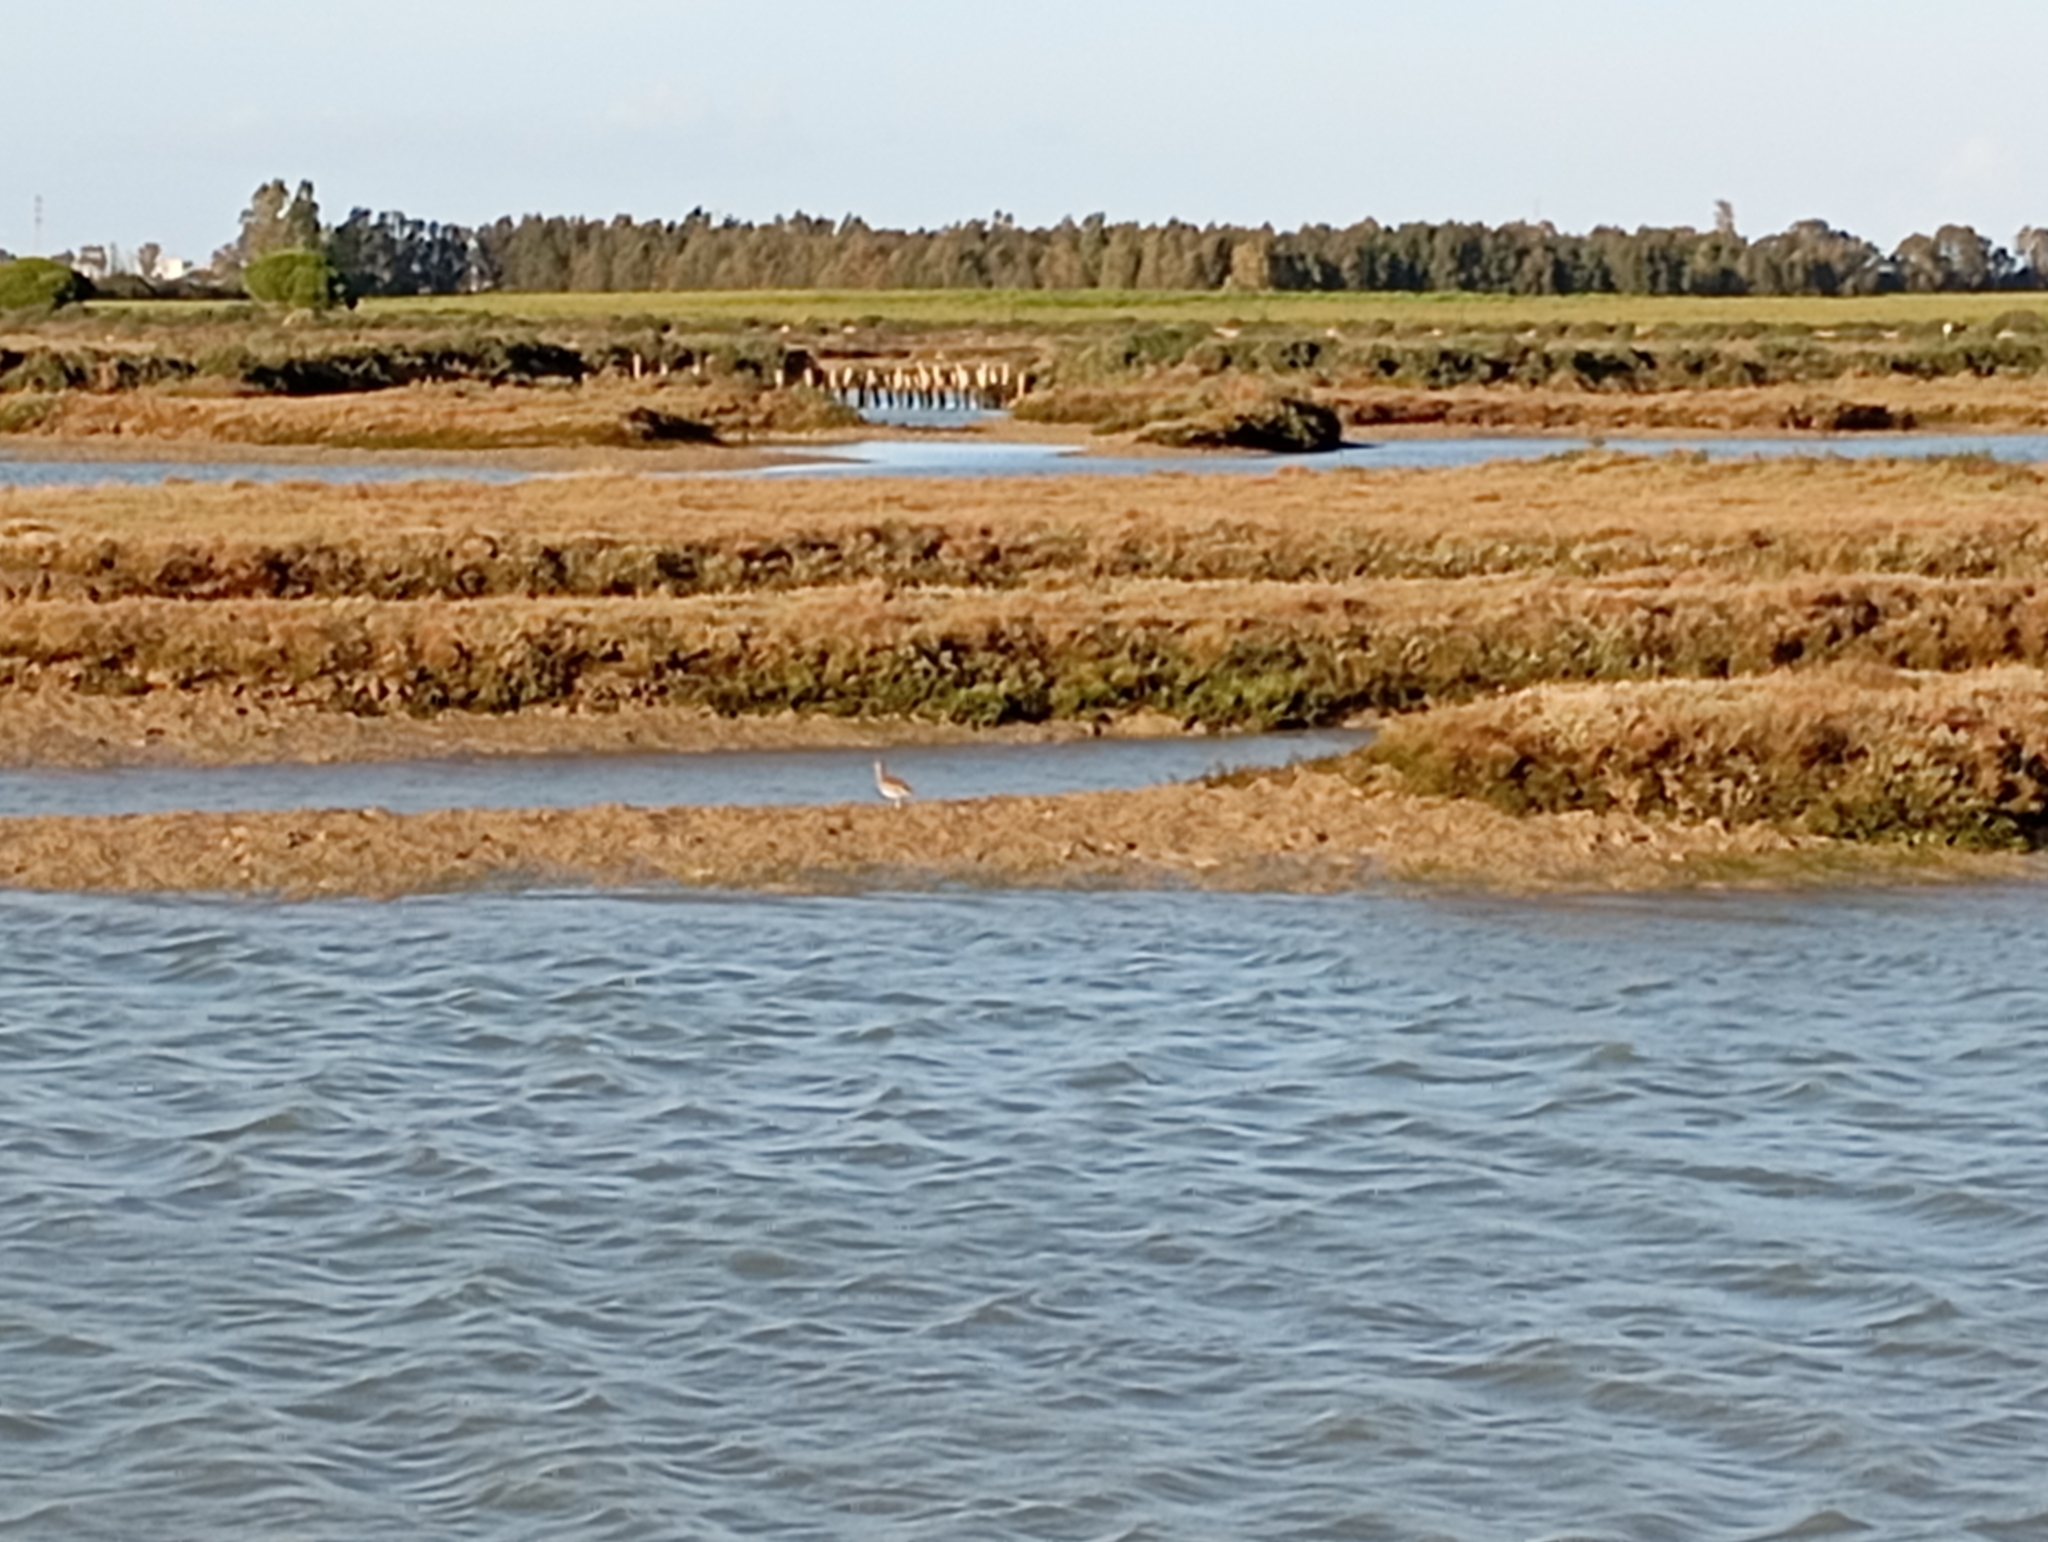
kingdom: Animalia
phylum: Chordata
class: Aves
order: Charadriiformes
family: Scolopacidae
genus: Numenius
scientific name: Numenius arquata
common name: Eurasian curlew
